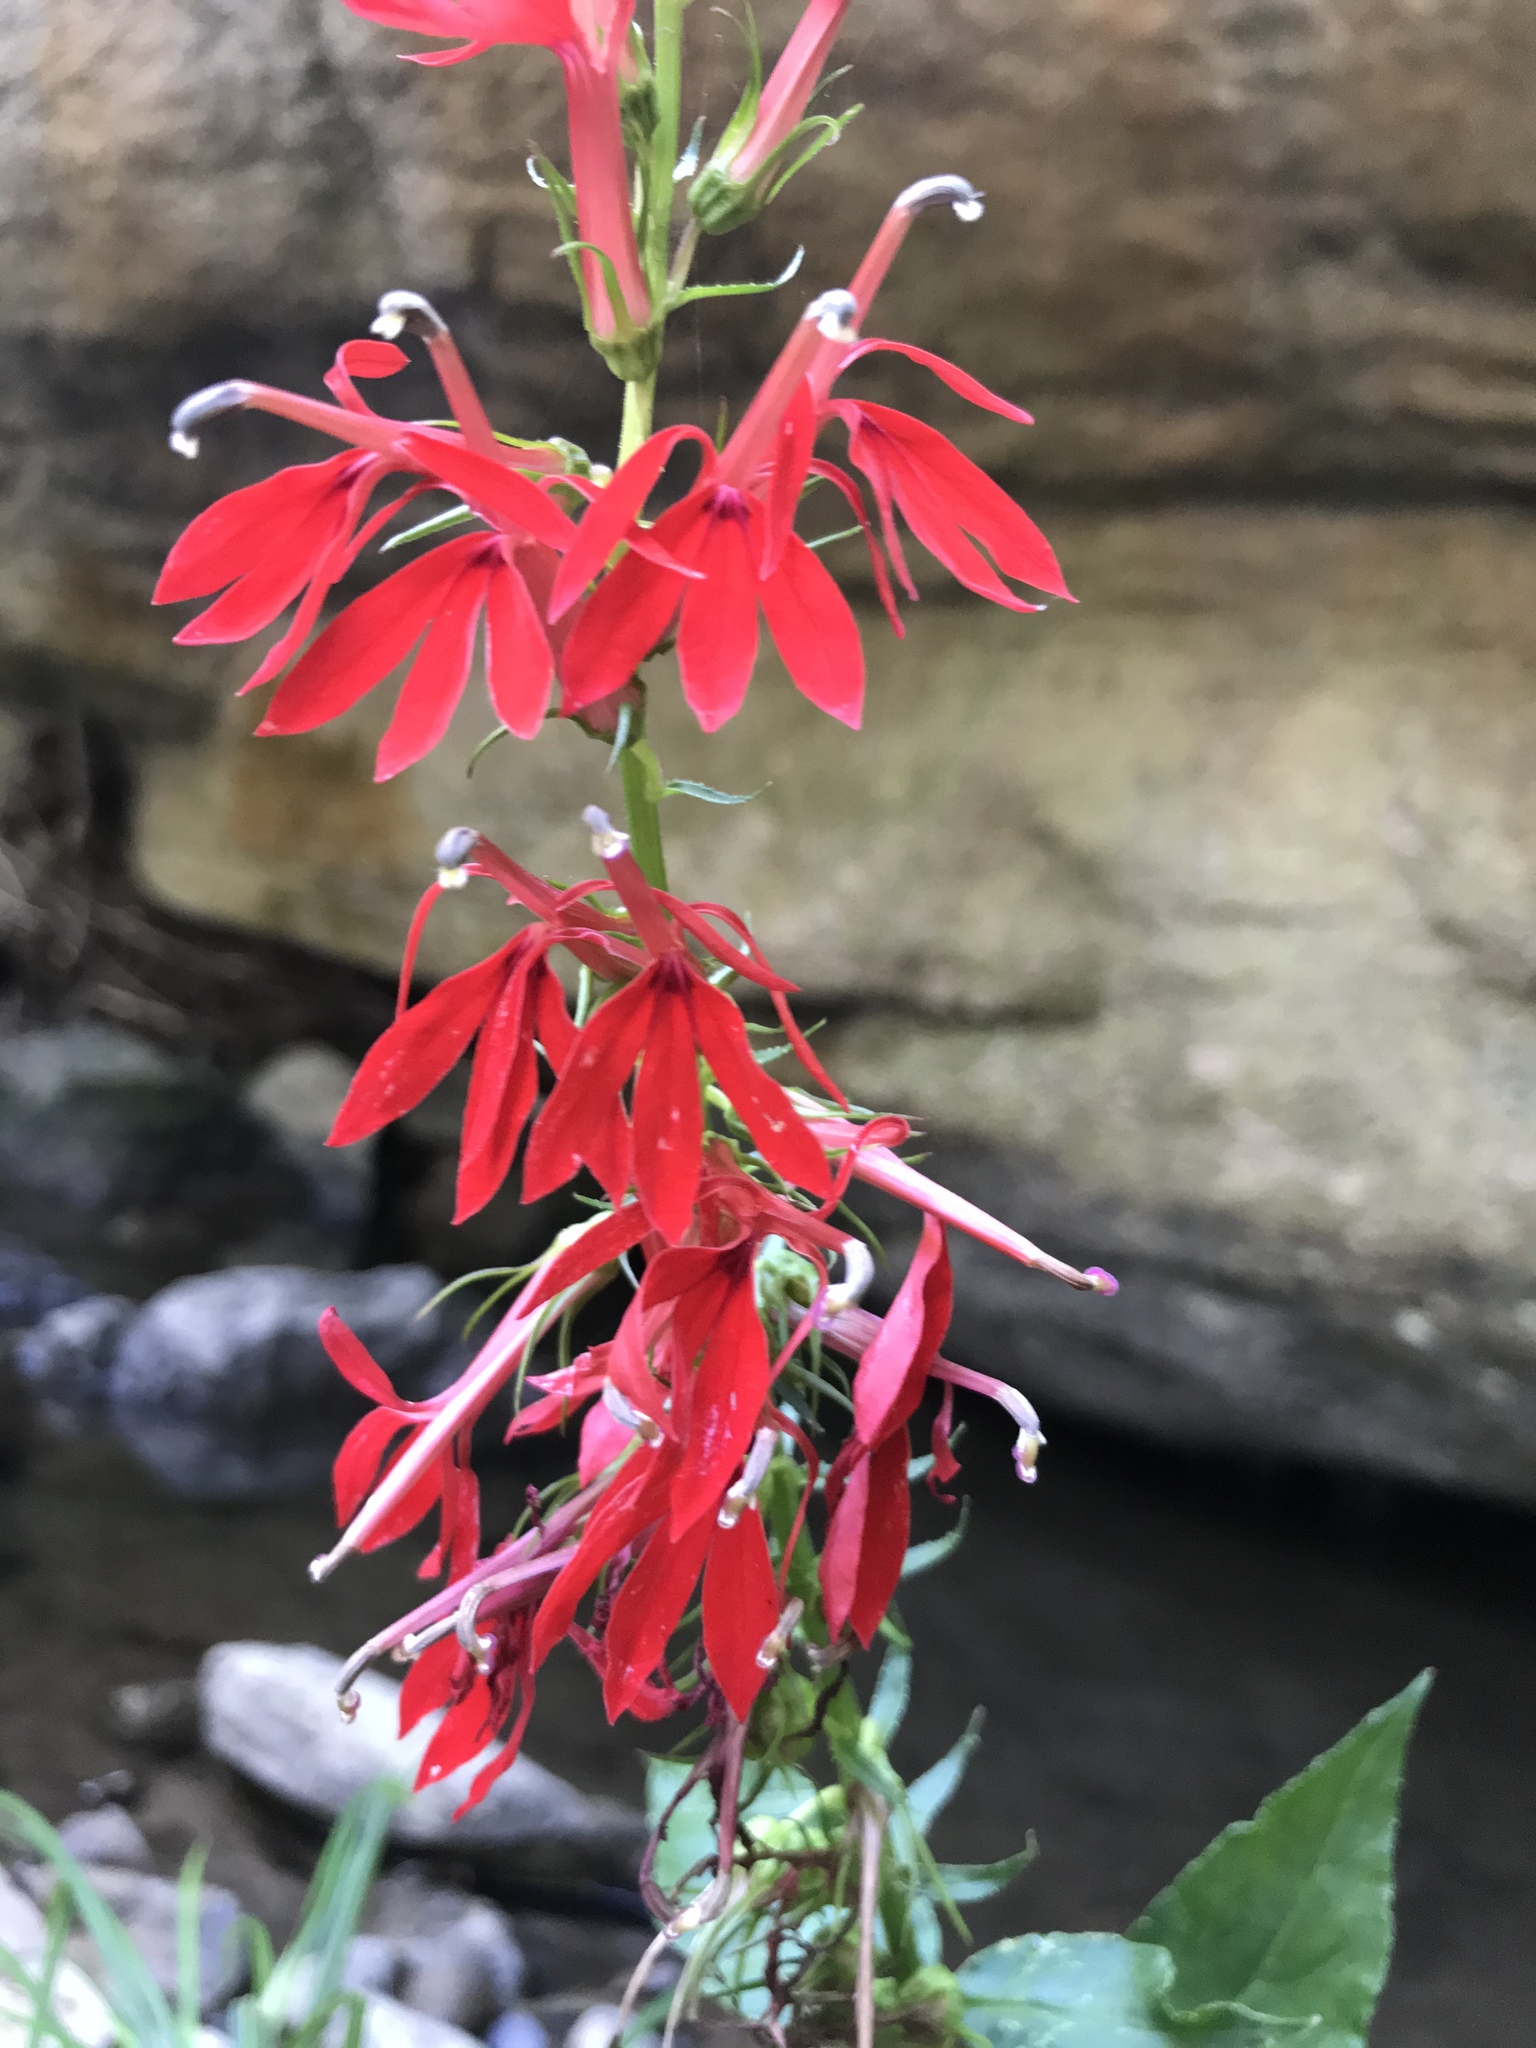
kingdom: Plantae
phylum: Tracheophyta
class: Magnoliopsida
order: Asterales
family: Campanulaceae
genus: Lobelia
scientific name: Lobelia cardinalis
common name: Cardinal flower
